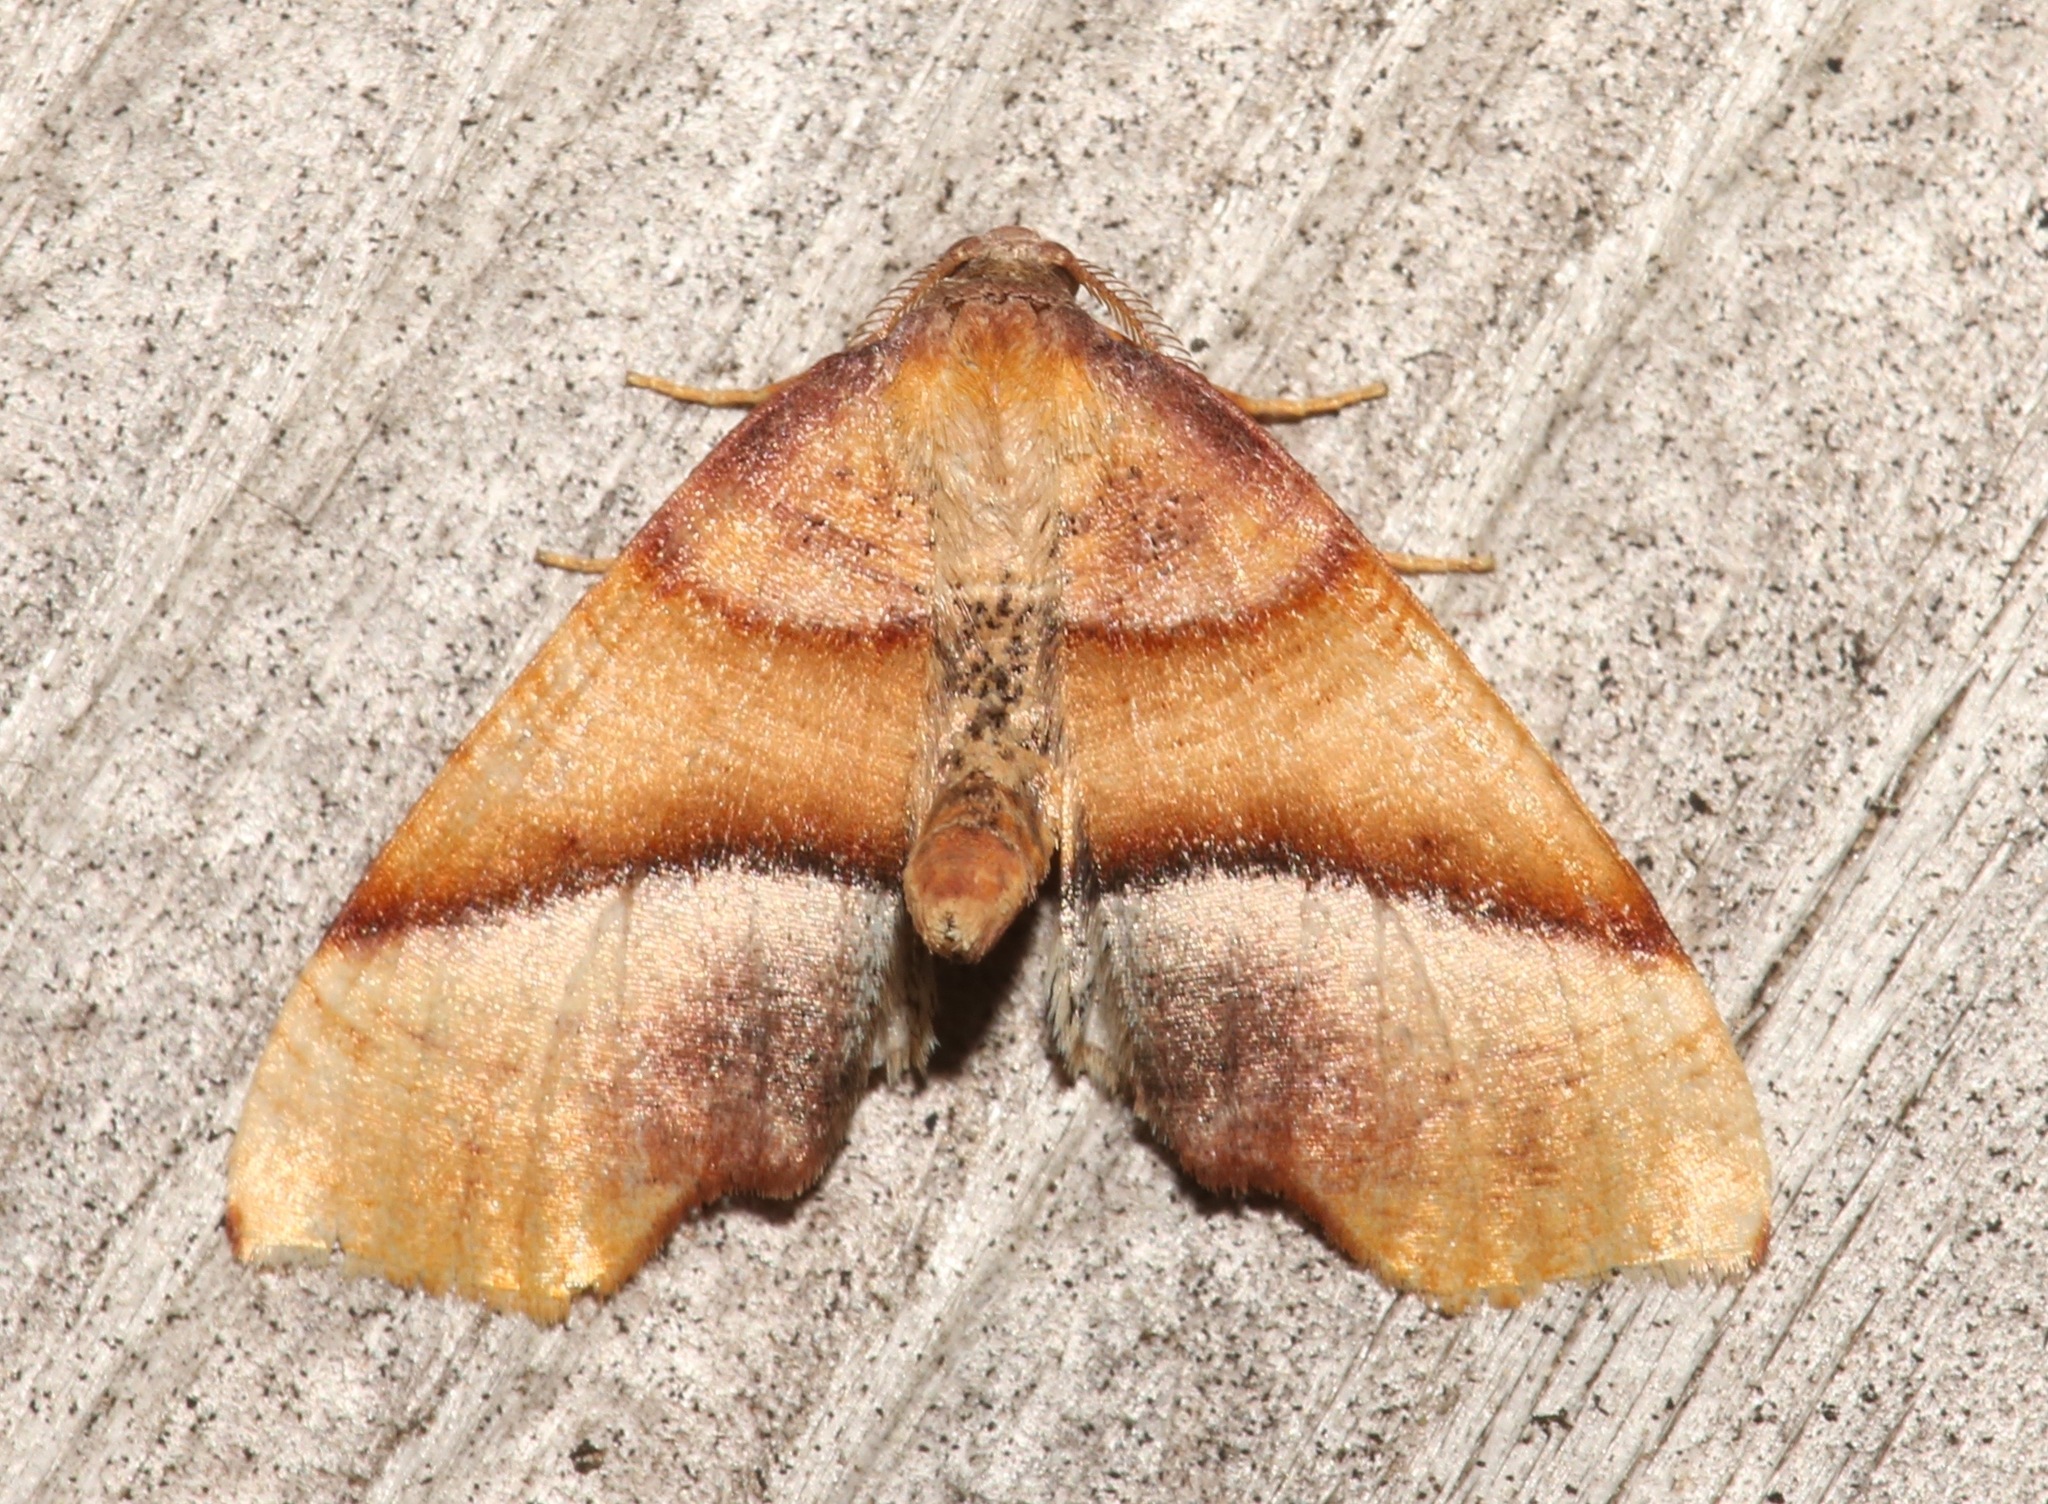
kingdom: Animalia
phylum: Arthropoda
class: Insecta
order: Lepidoptera
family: Geometridae
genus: Plagodis
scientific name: Plagodis phlogosaria
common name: Straight-lined plagodis
